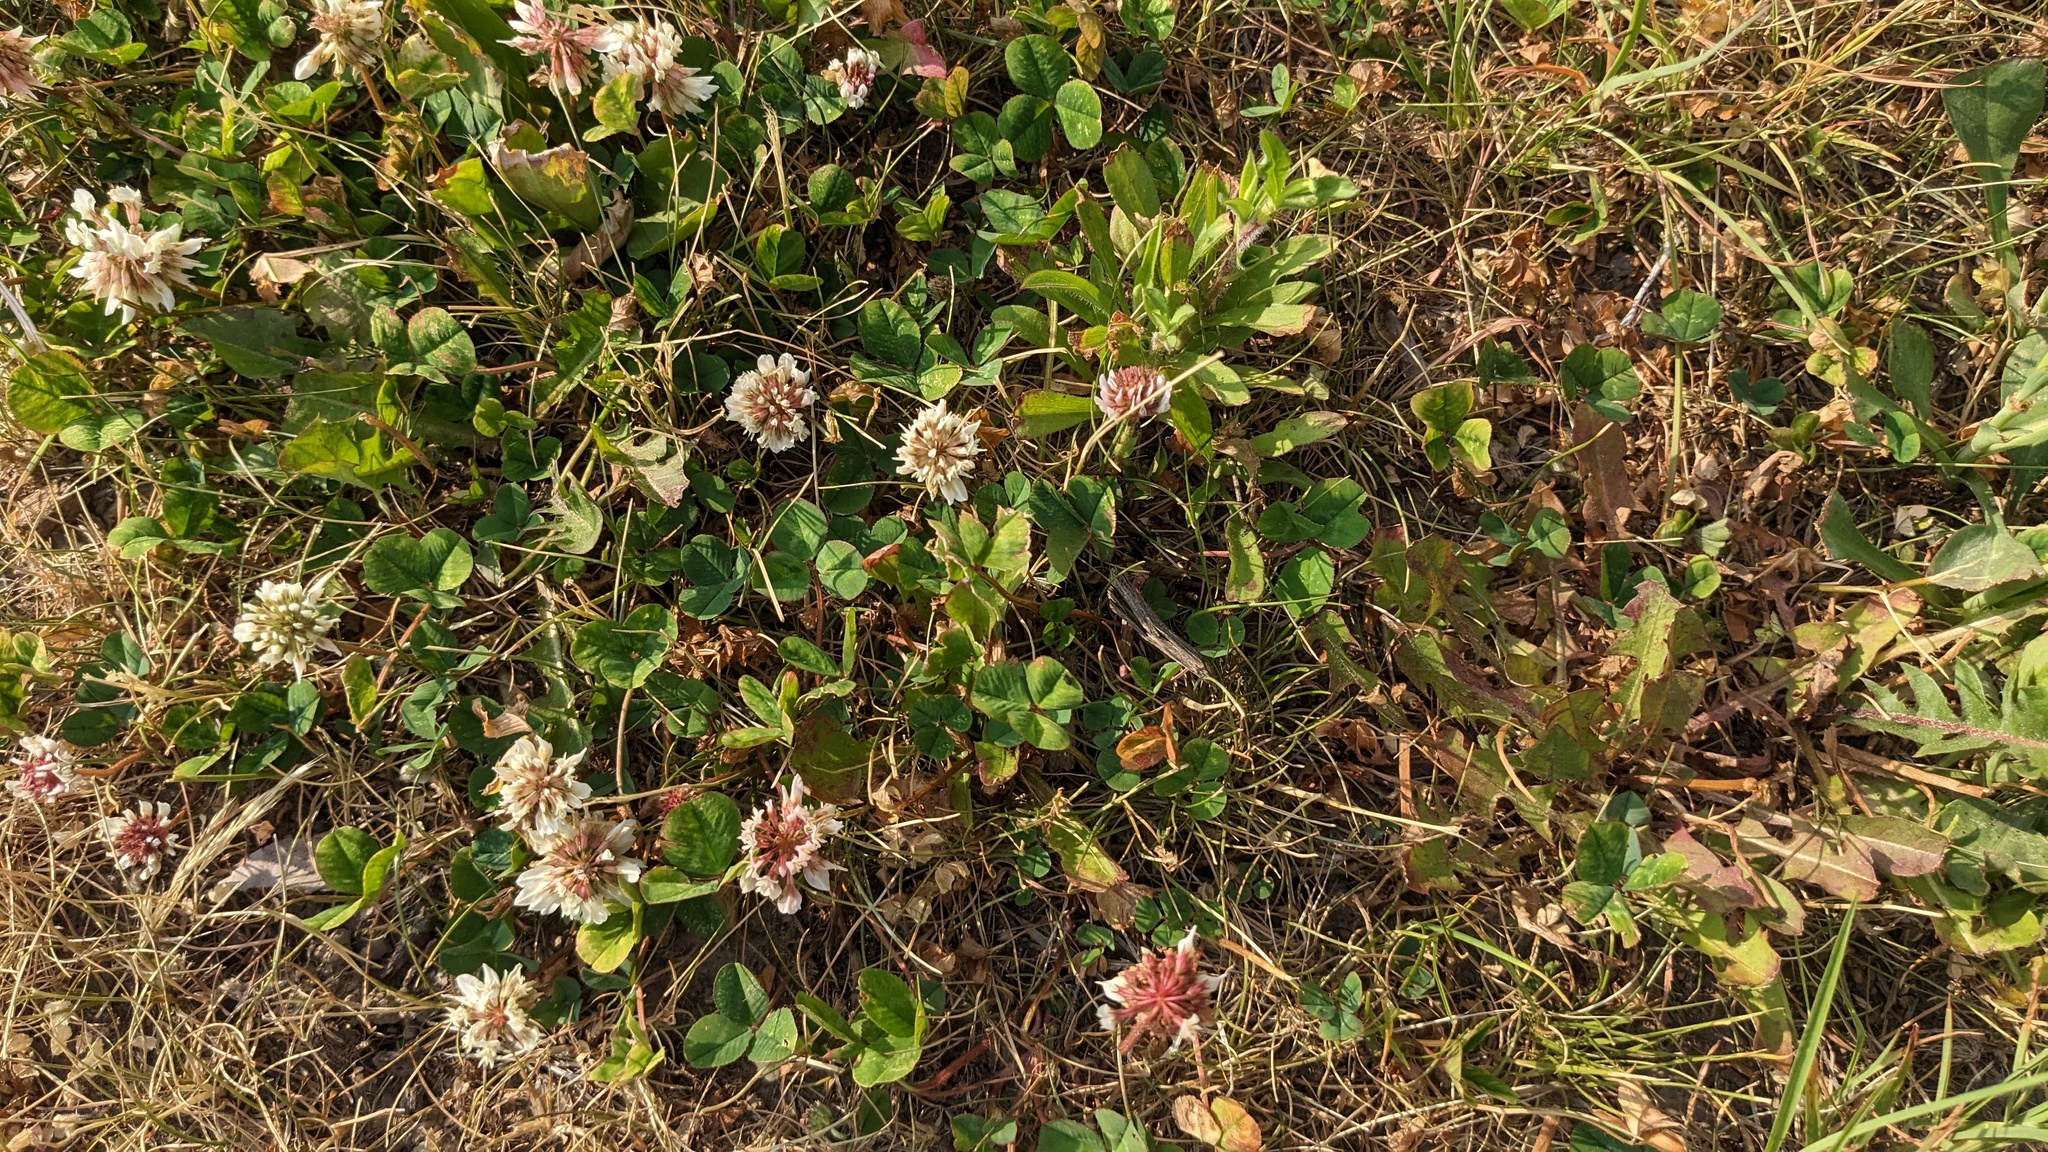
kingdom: Plantae
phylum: Tracheophyta
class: Magnoliopsida
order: Fabales
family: Fabaceae
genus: Trifolium
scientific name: Trifolium repens
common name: White clover
